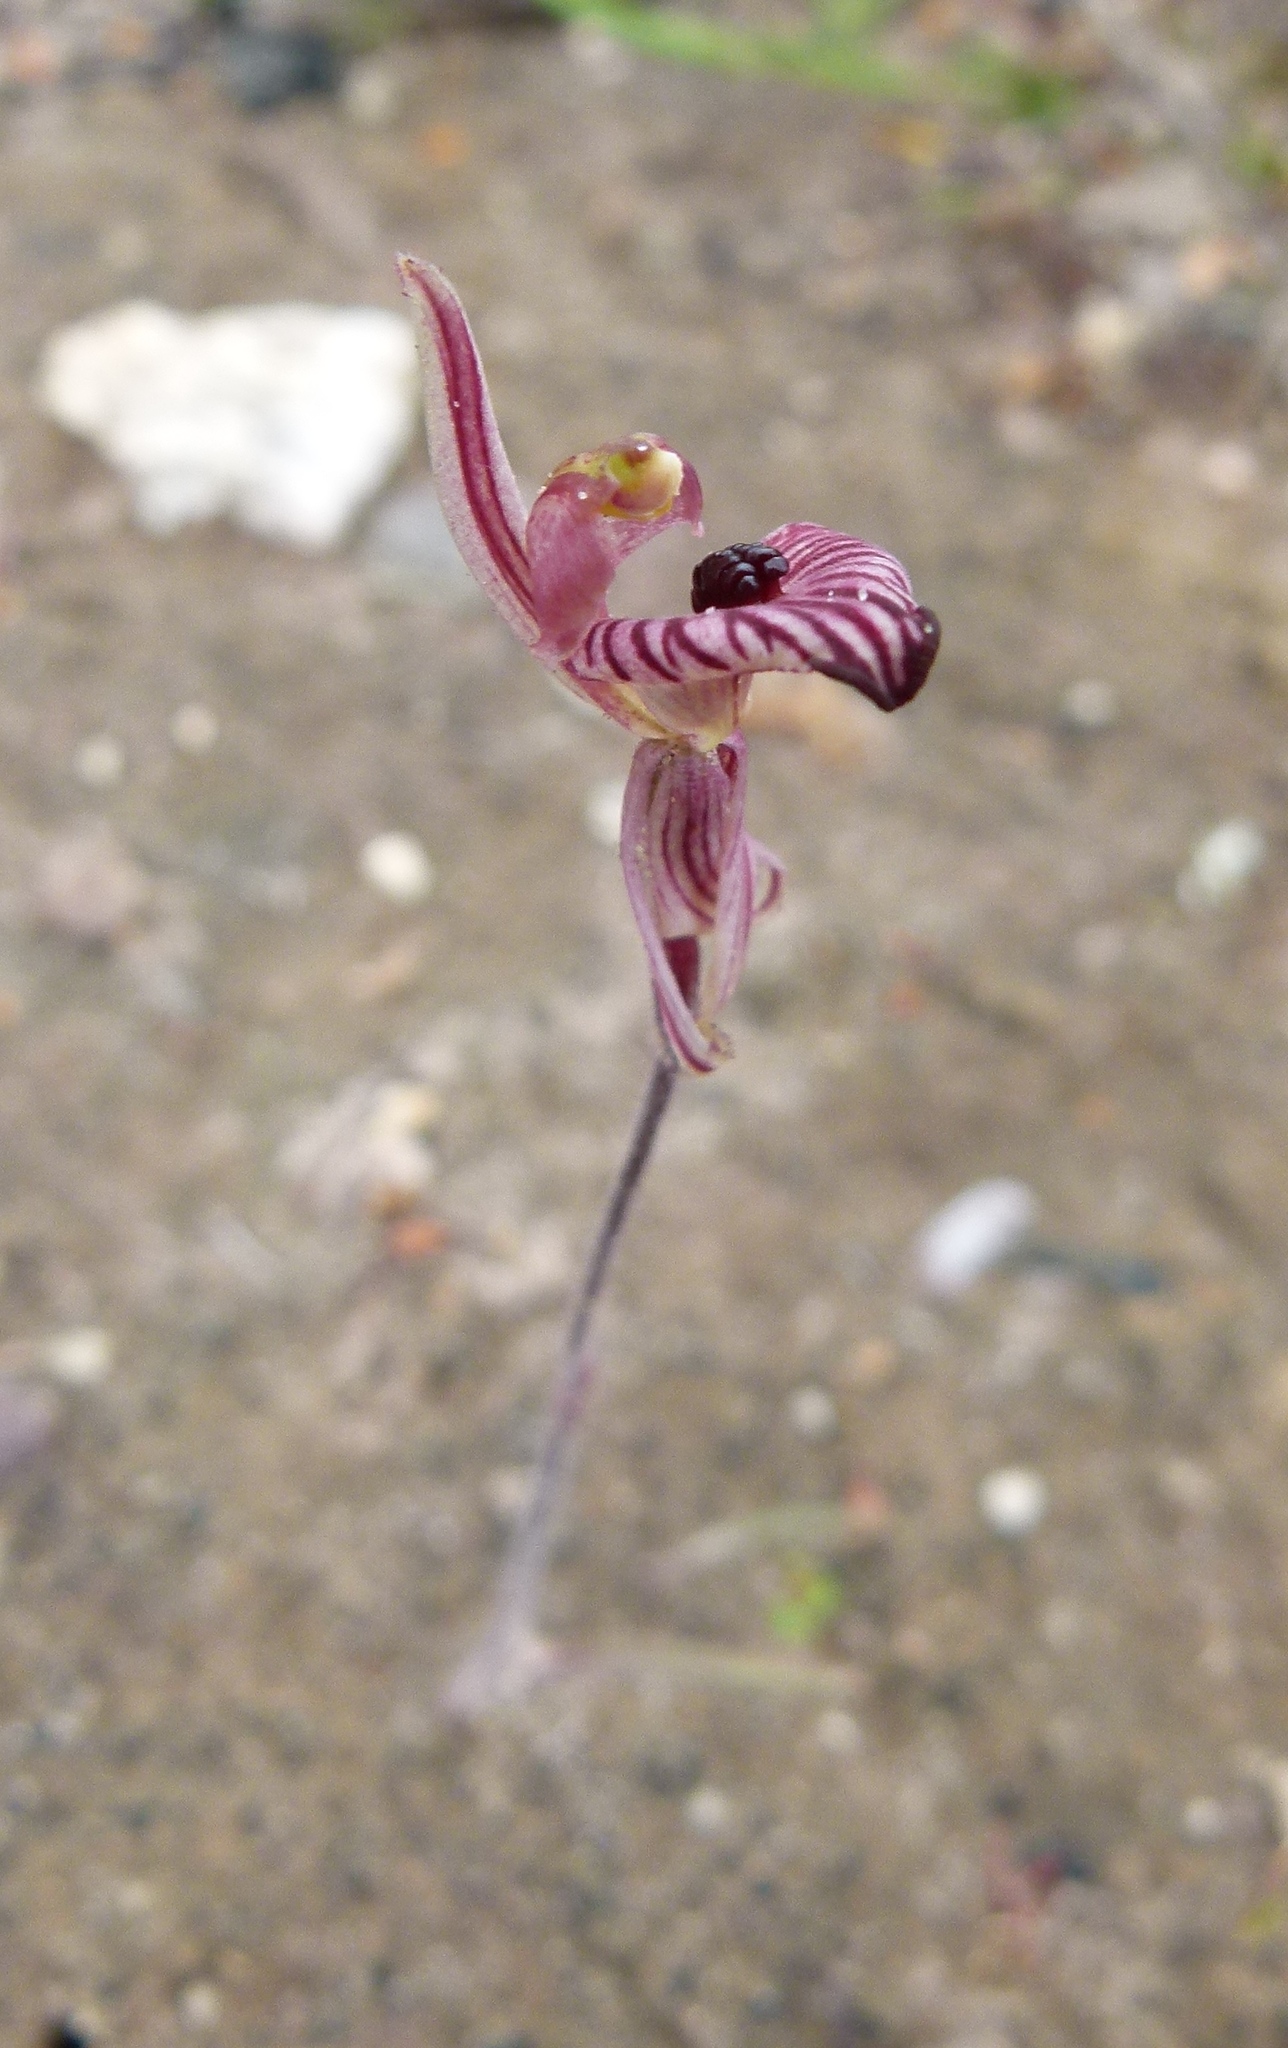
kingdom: Plantae
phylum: Tracheophyta
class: Liliopsida
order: Asparagales
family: Orchidaceae
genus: Caladenia
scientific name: Caladenia cairnsiana
